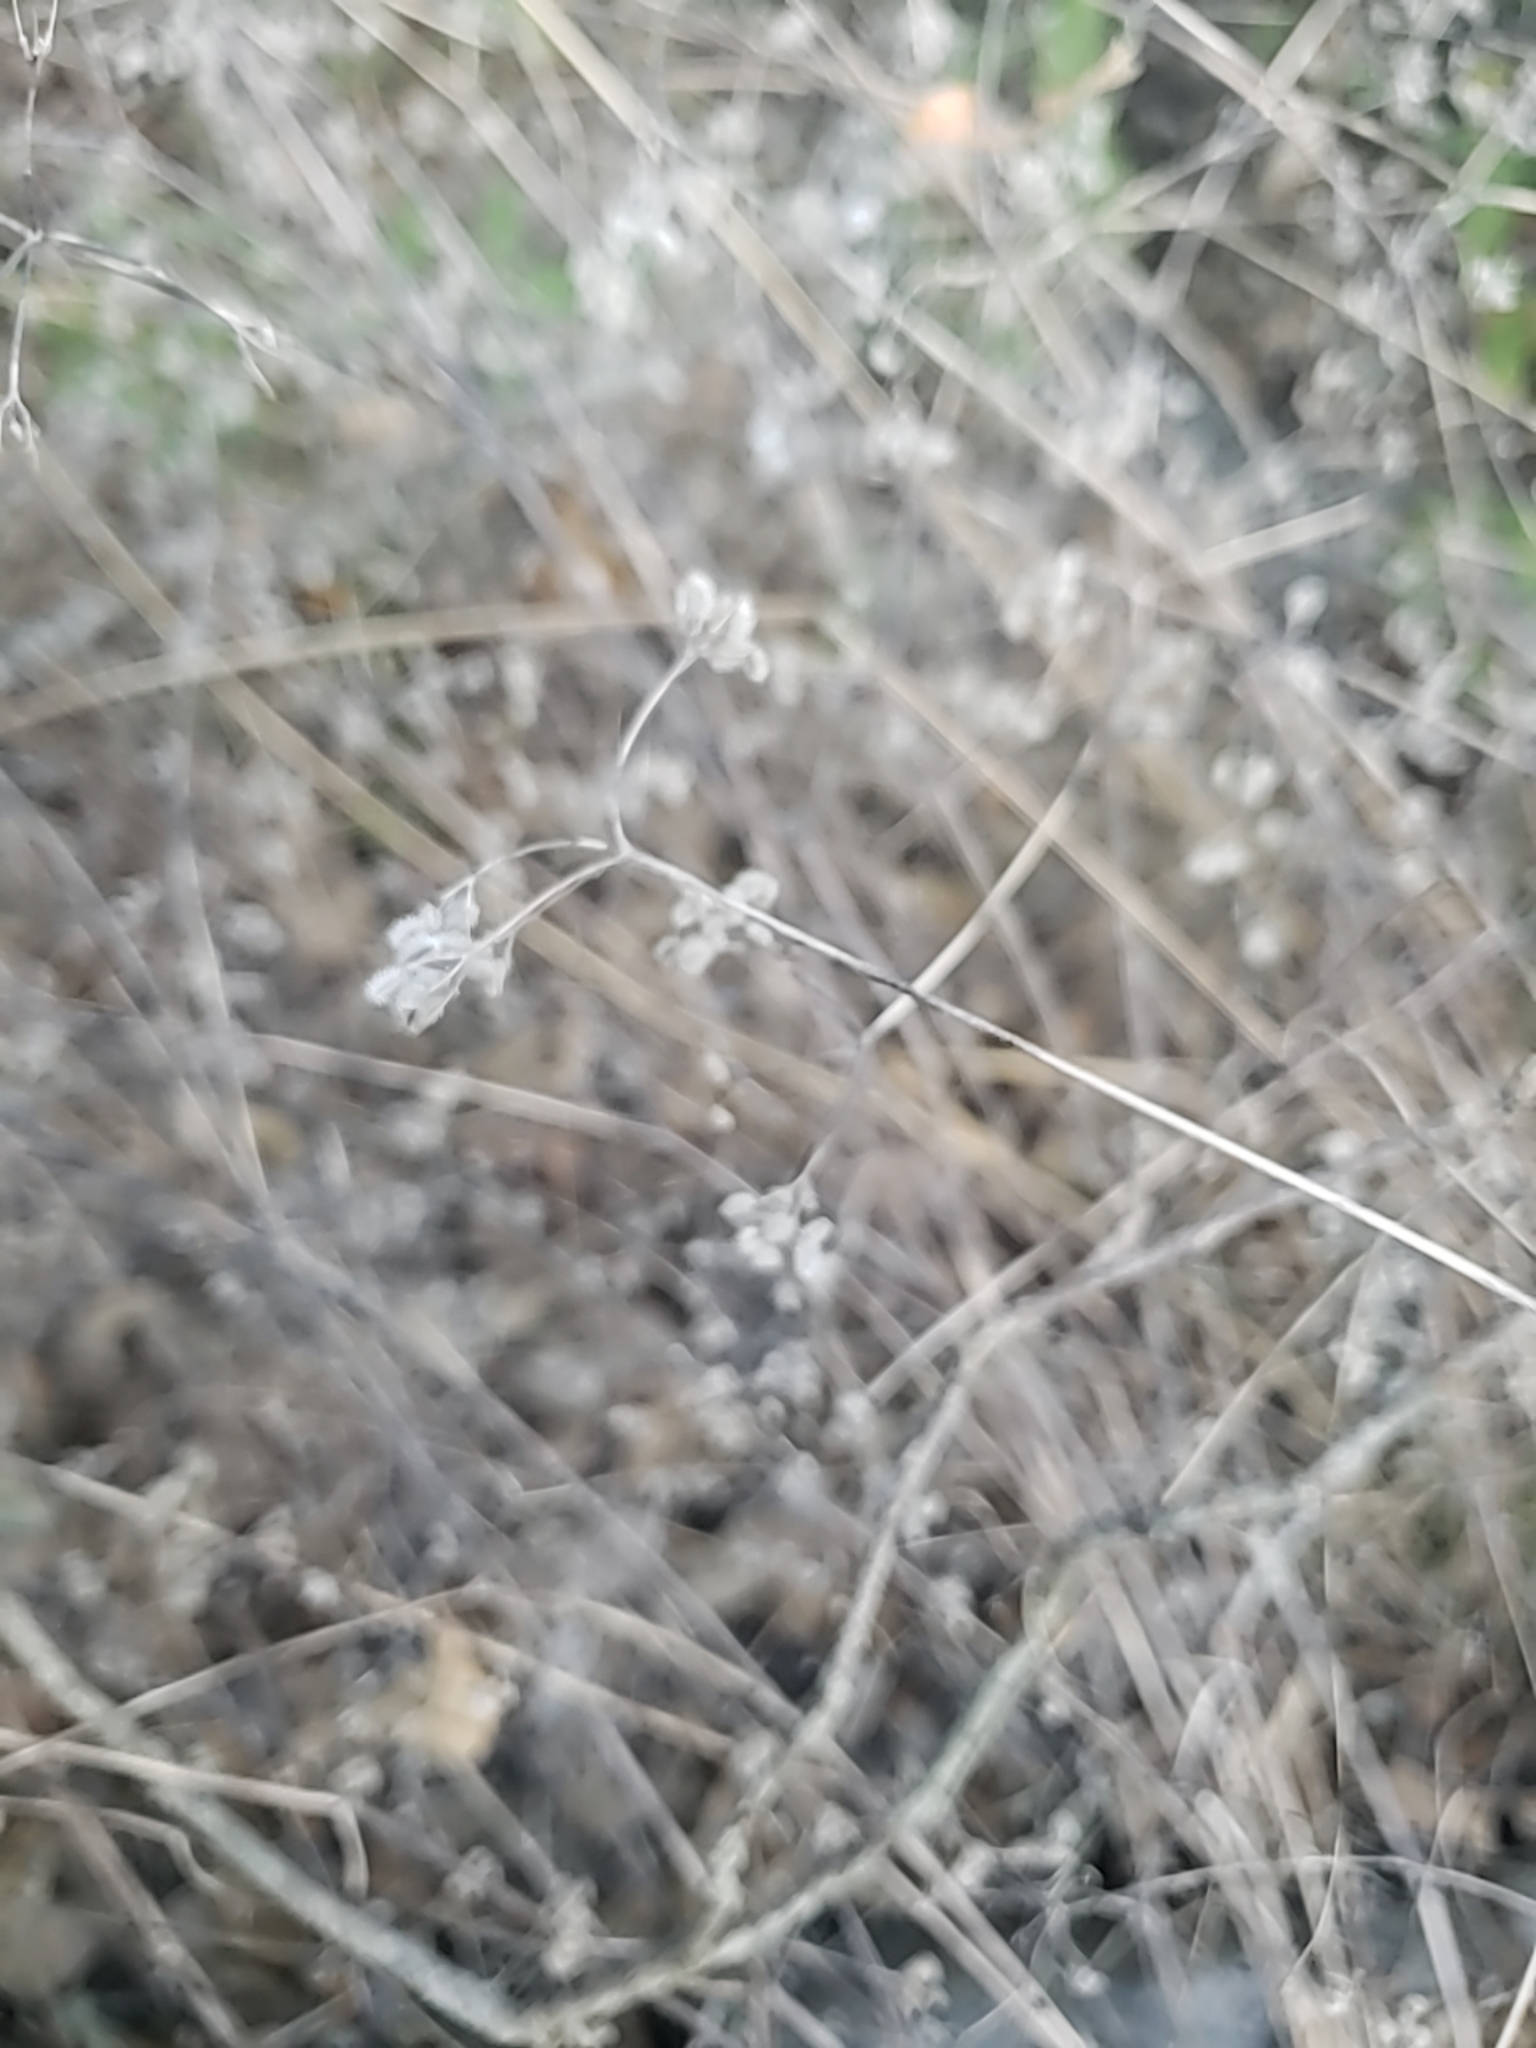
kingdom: Plantae
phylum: Tracheophyta
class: Magnoliopsida
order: Apiales
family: Apiaceae
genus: Torilis
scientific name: Torilis arvensis
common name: Spreading hedge-parsley
